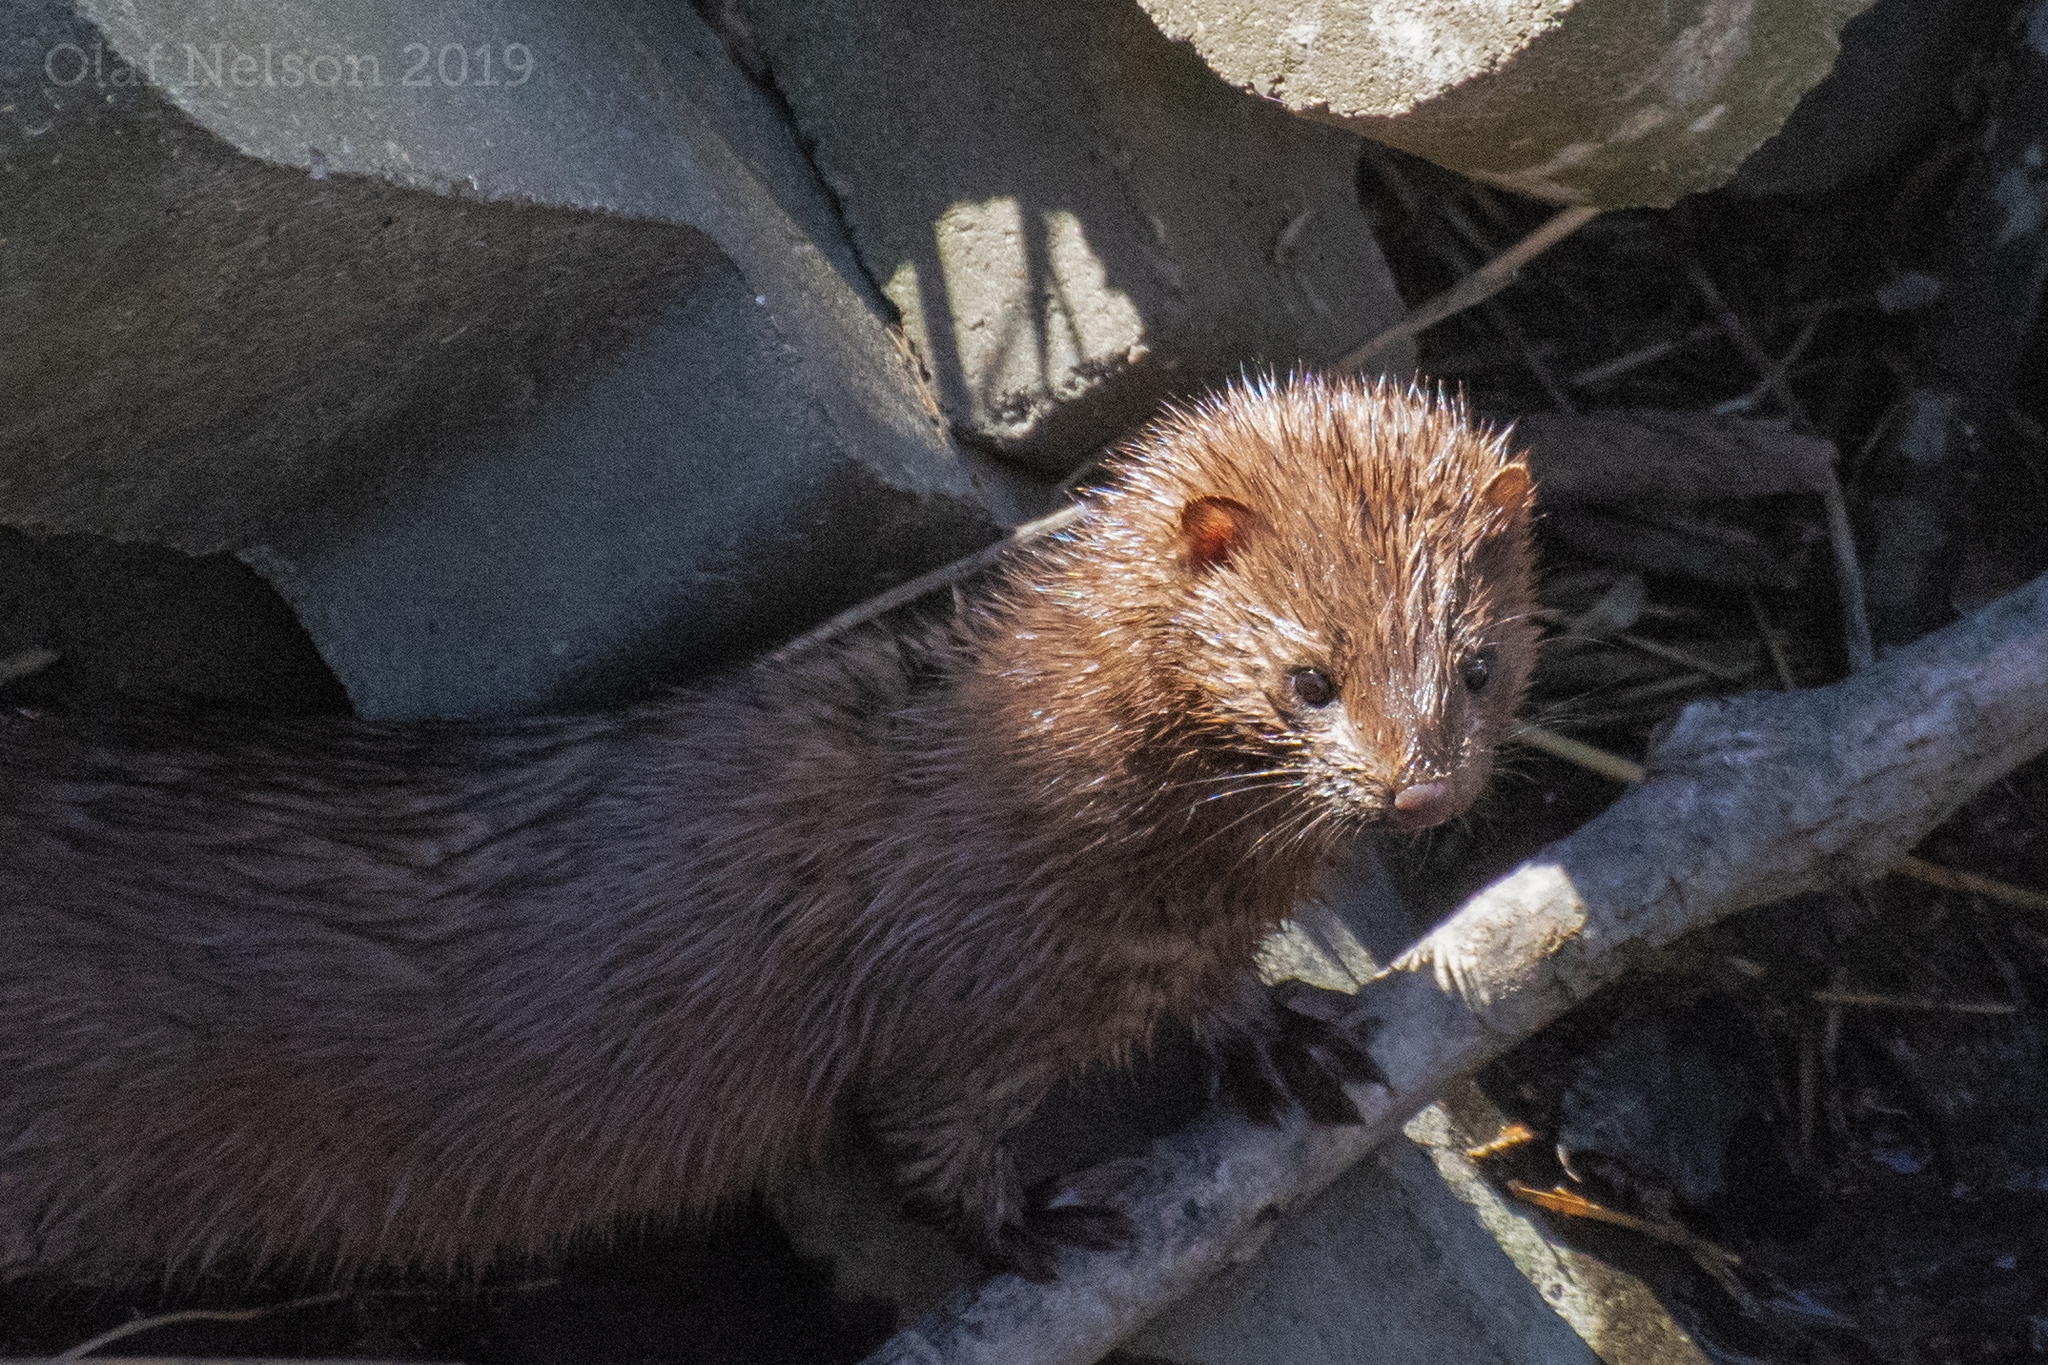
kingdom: Animalia
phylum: Chordata
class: Mammalia
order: Carnivora
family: Mustelidae
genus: Mustela
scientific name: Mustela
